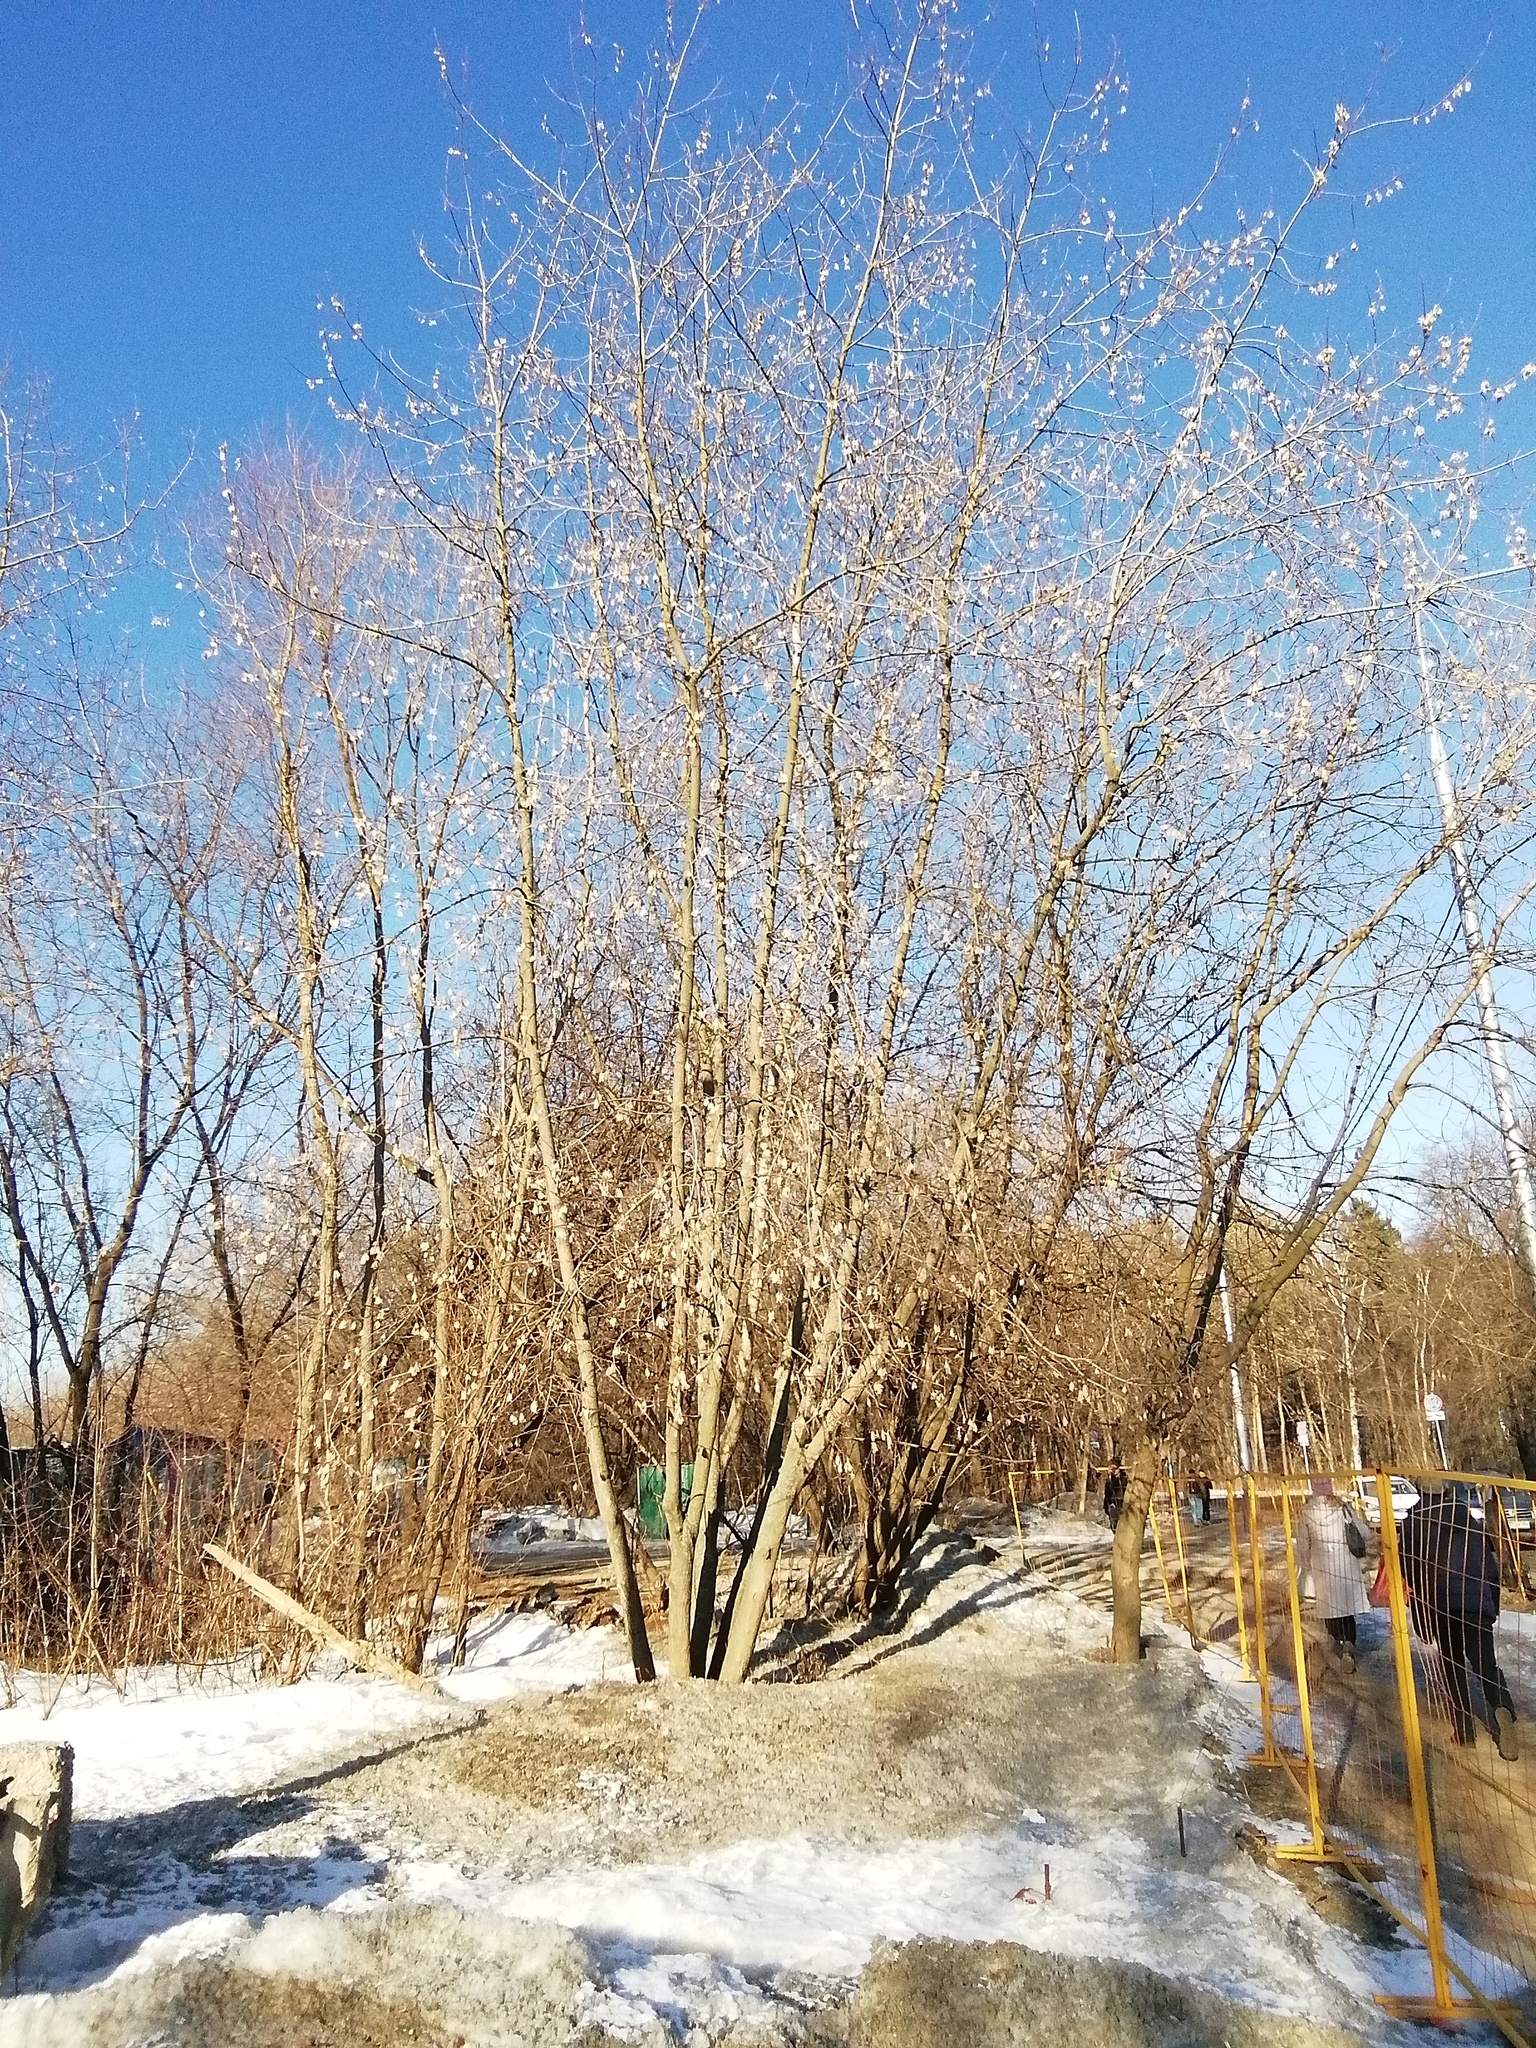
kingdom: Plantae
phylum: Tracheophyta
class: Magnoliopsida
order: Sapindales
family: Sapindaceae
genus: Acer
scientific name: Acer negundo
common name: Ashleaf maple
